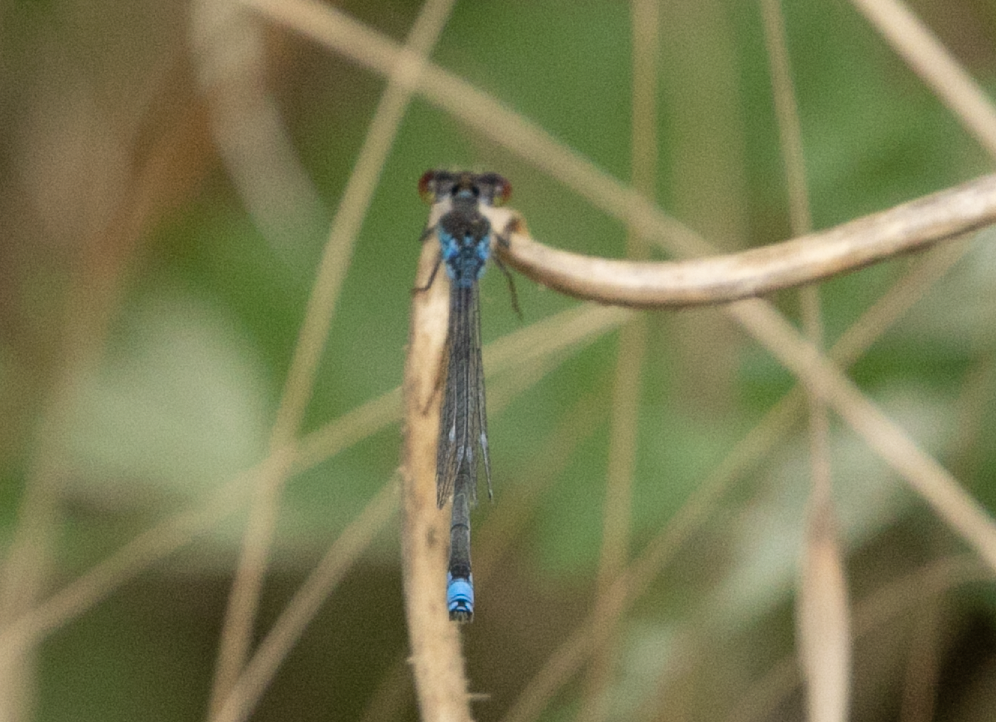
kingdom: Animalia
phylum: Arthropoda
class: Insecta
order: Odonata
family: Coenagrionidae
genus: Erythromma
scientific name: Erythromma viridulum
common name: Small red-eyed damselfly
